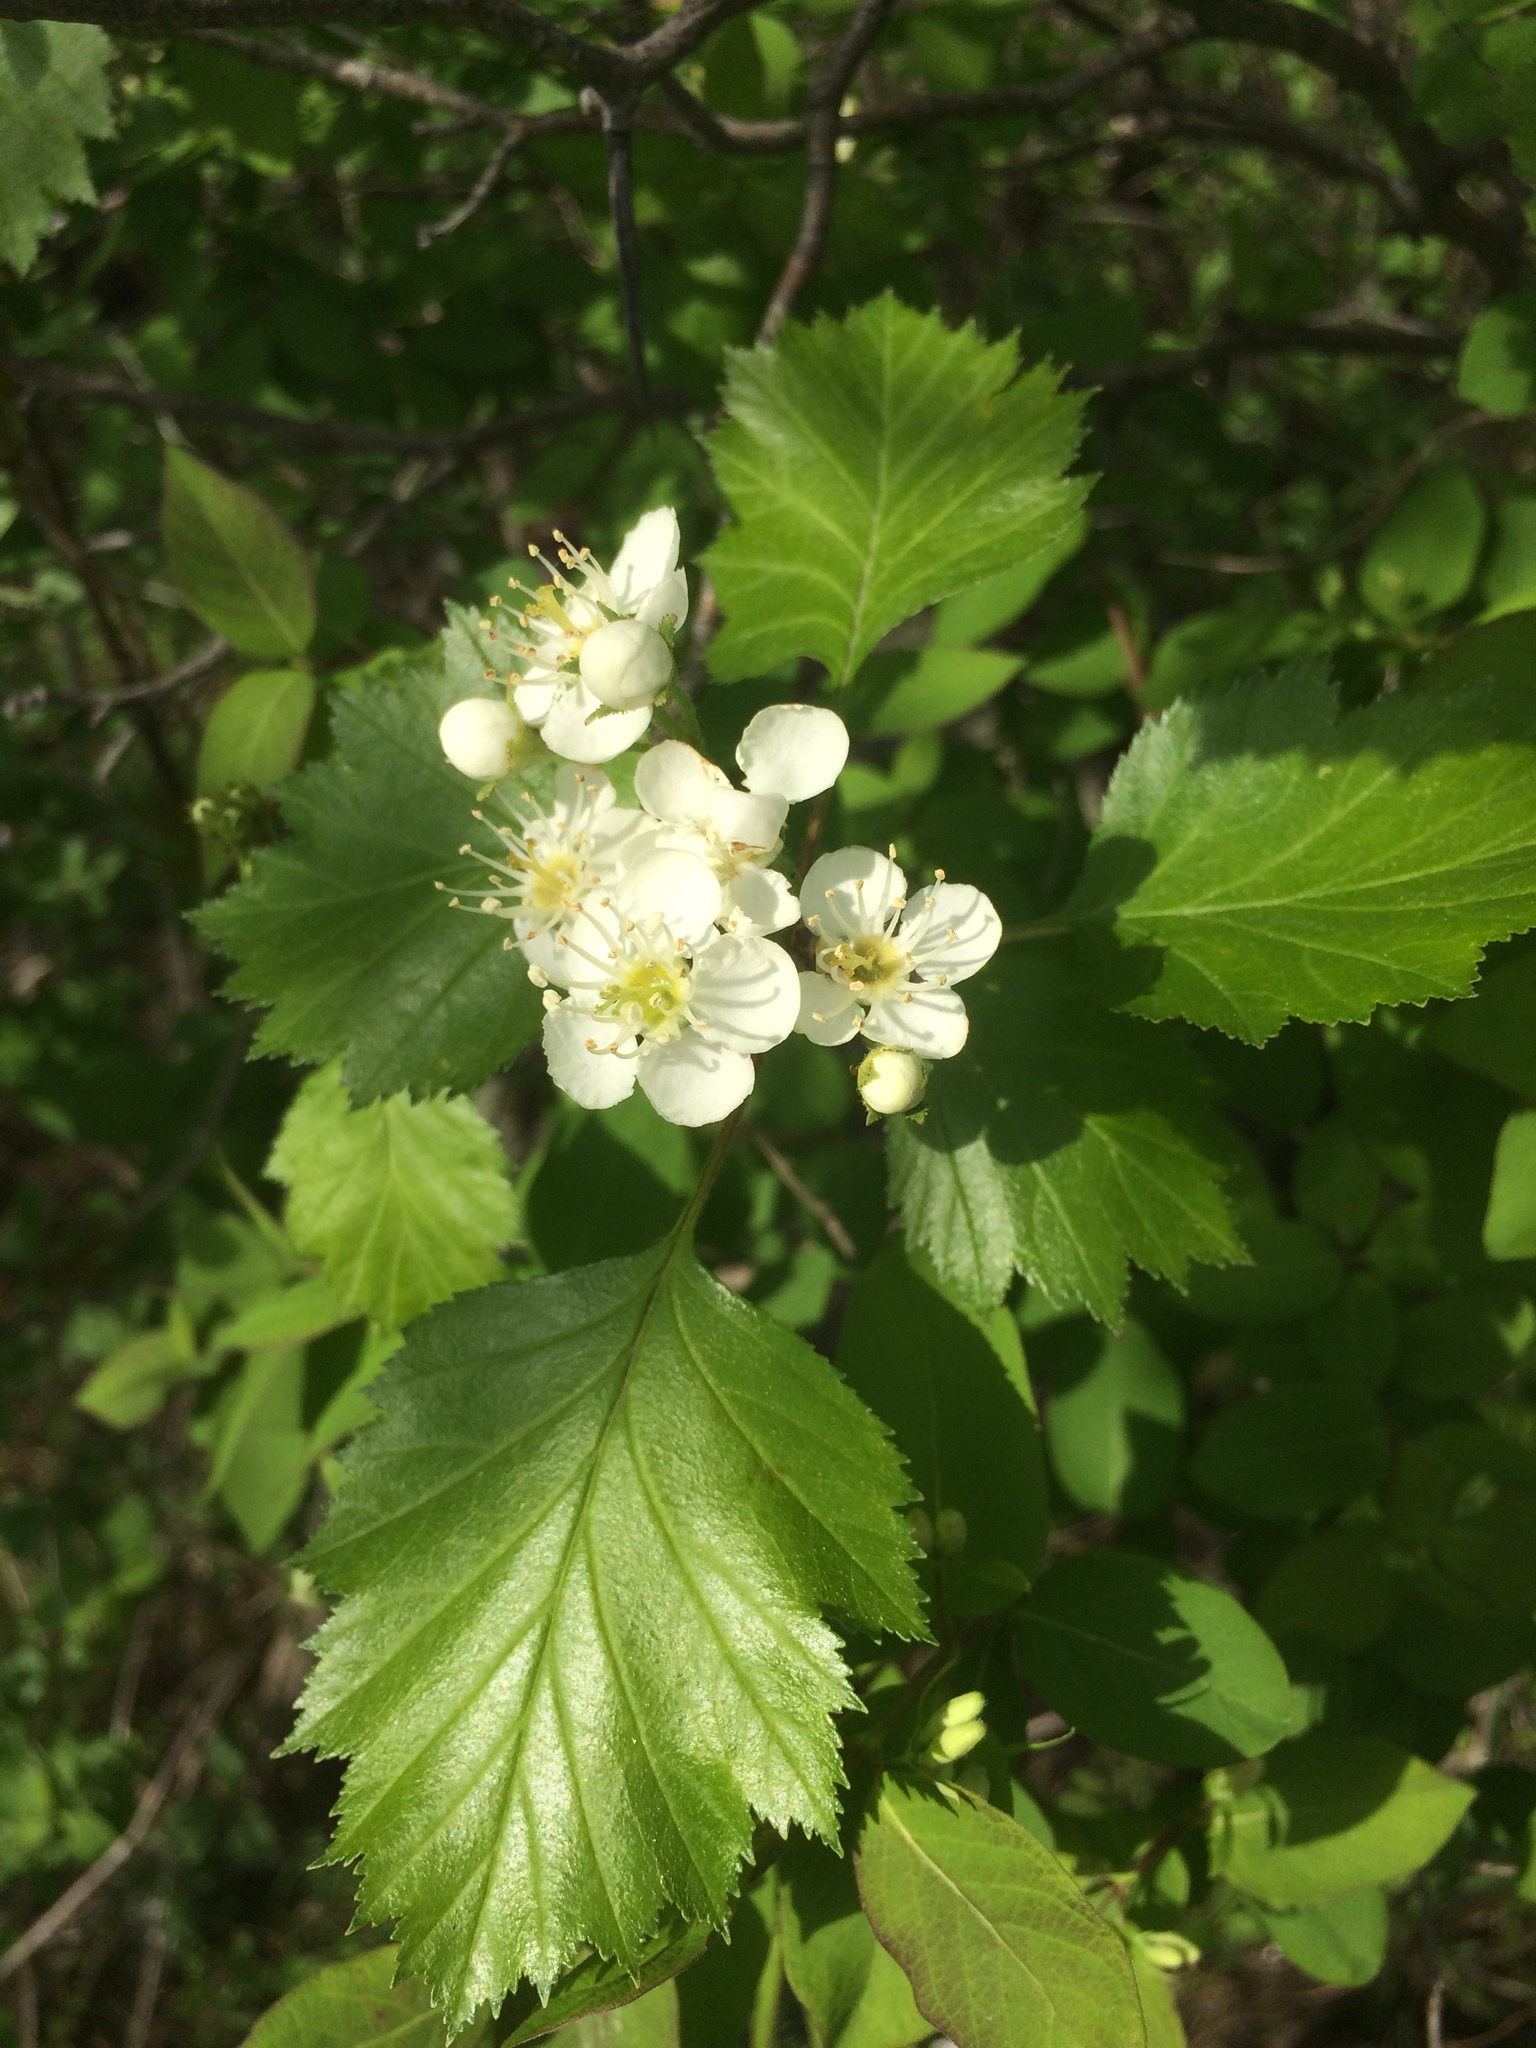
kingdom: Plantae
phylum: Tracheophyta
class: Magnoliopsida
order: Rosales
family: Rosaceae
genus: Crataegus
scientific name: Crataegus irrasa
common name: Unshorn hawthorn
